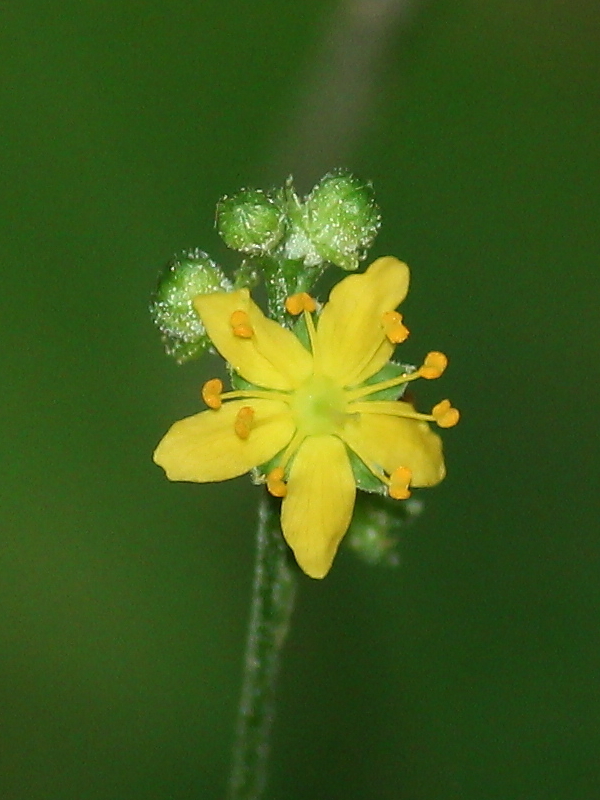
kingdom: Plantae
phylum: Tracheophyta
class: Magnoliopsida
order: Rosales
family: Rosaceae
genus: Agrimonia
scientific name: Agrimonia rostellata
